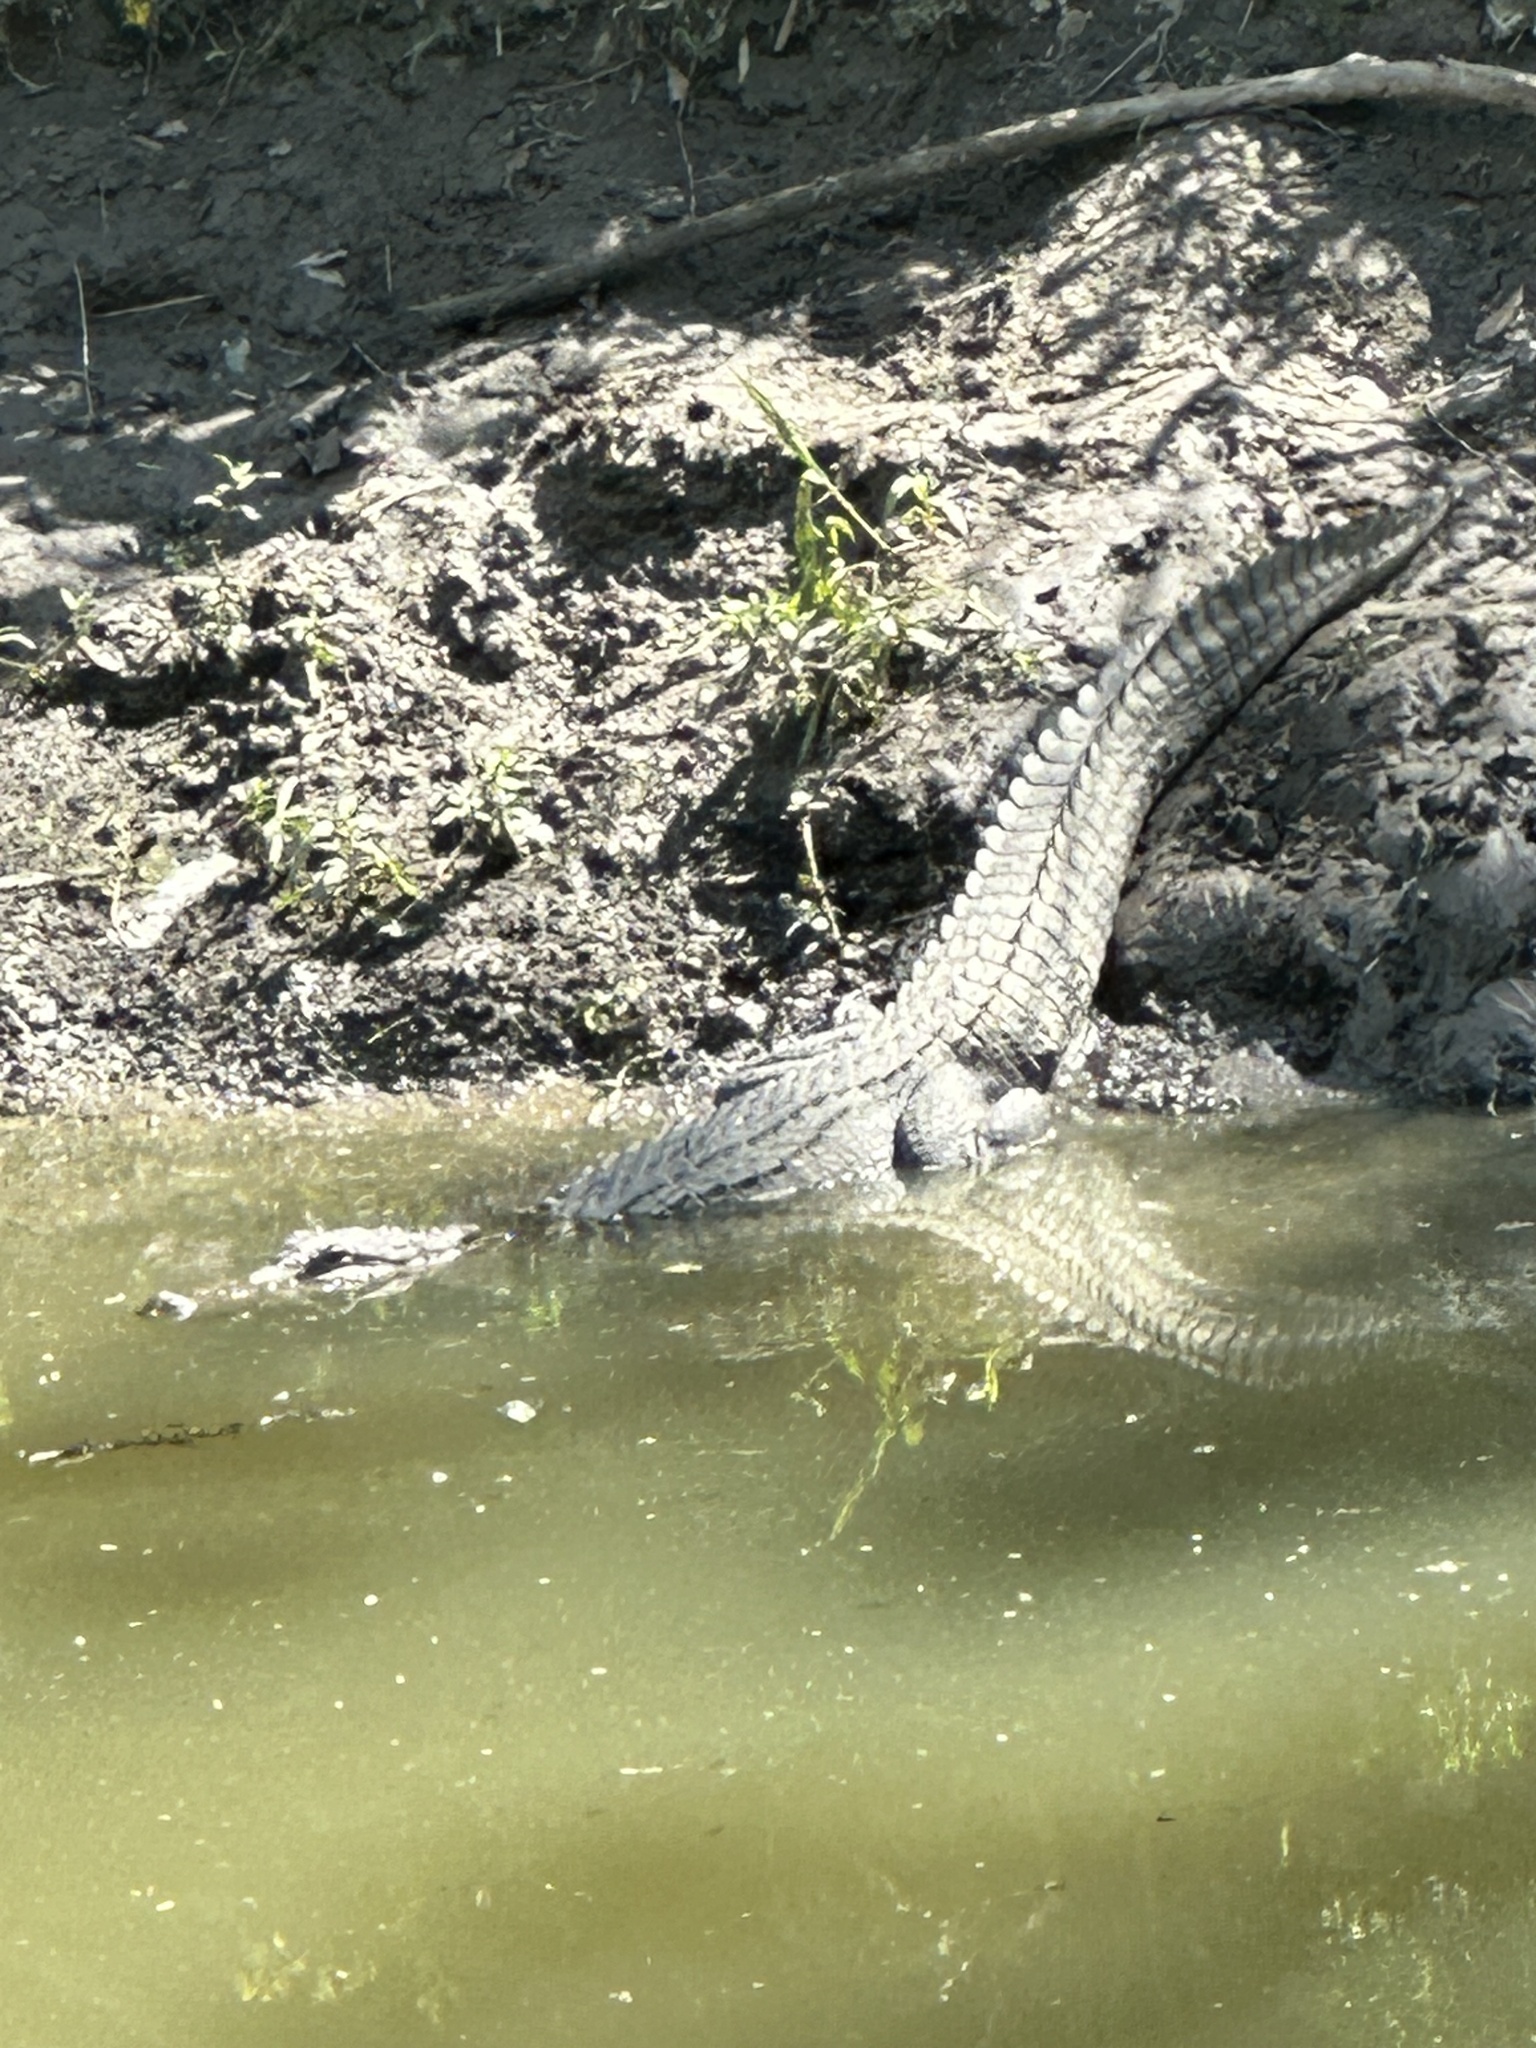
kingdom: Animalia
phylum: Chordata
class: Crocodylia
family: Alligatoridae
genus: Alligator
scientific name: Alligator mississippiensis
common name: American alligator
